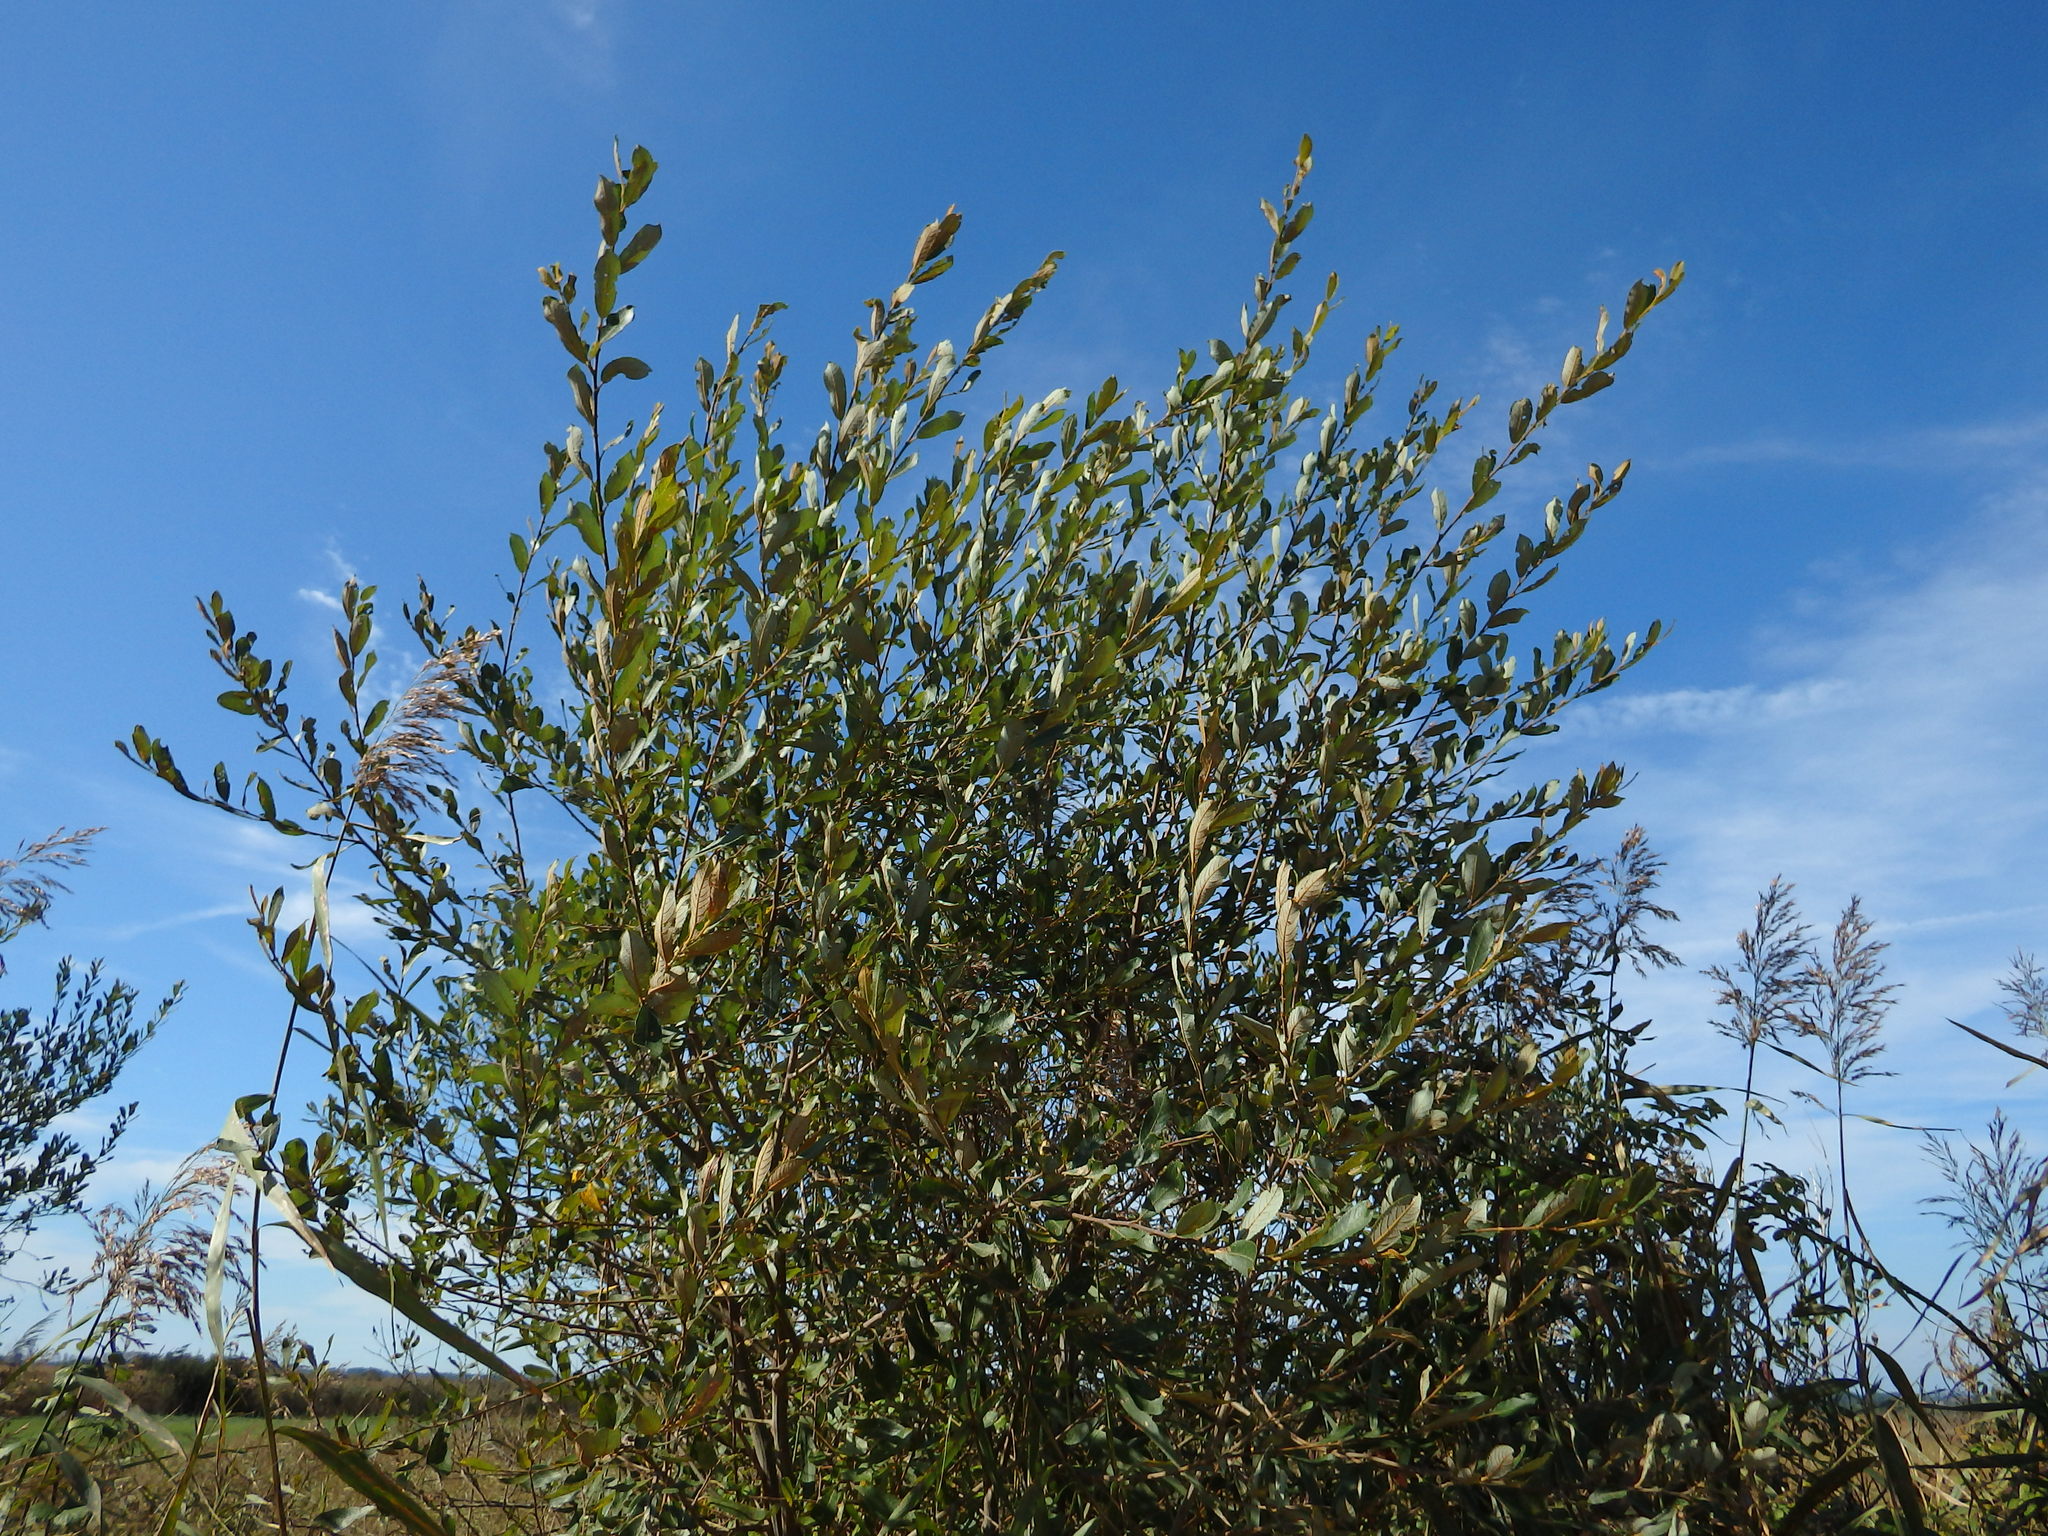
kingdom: Plantae
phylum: Tracheophyta
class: Magnoliopsida
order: Malpighiales
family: Salicaceae
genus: Salix
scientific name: Salix atrocinerea
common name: Rusty willow
